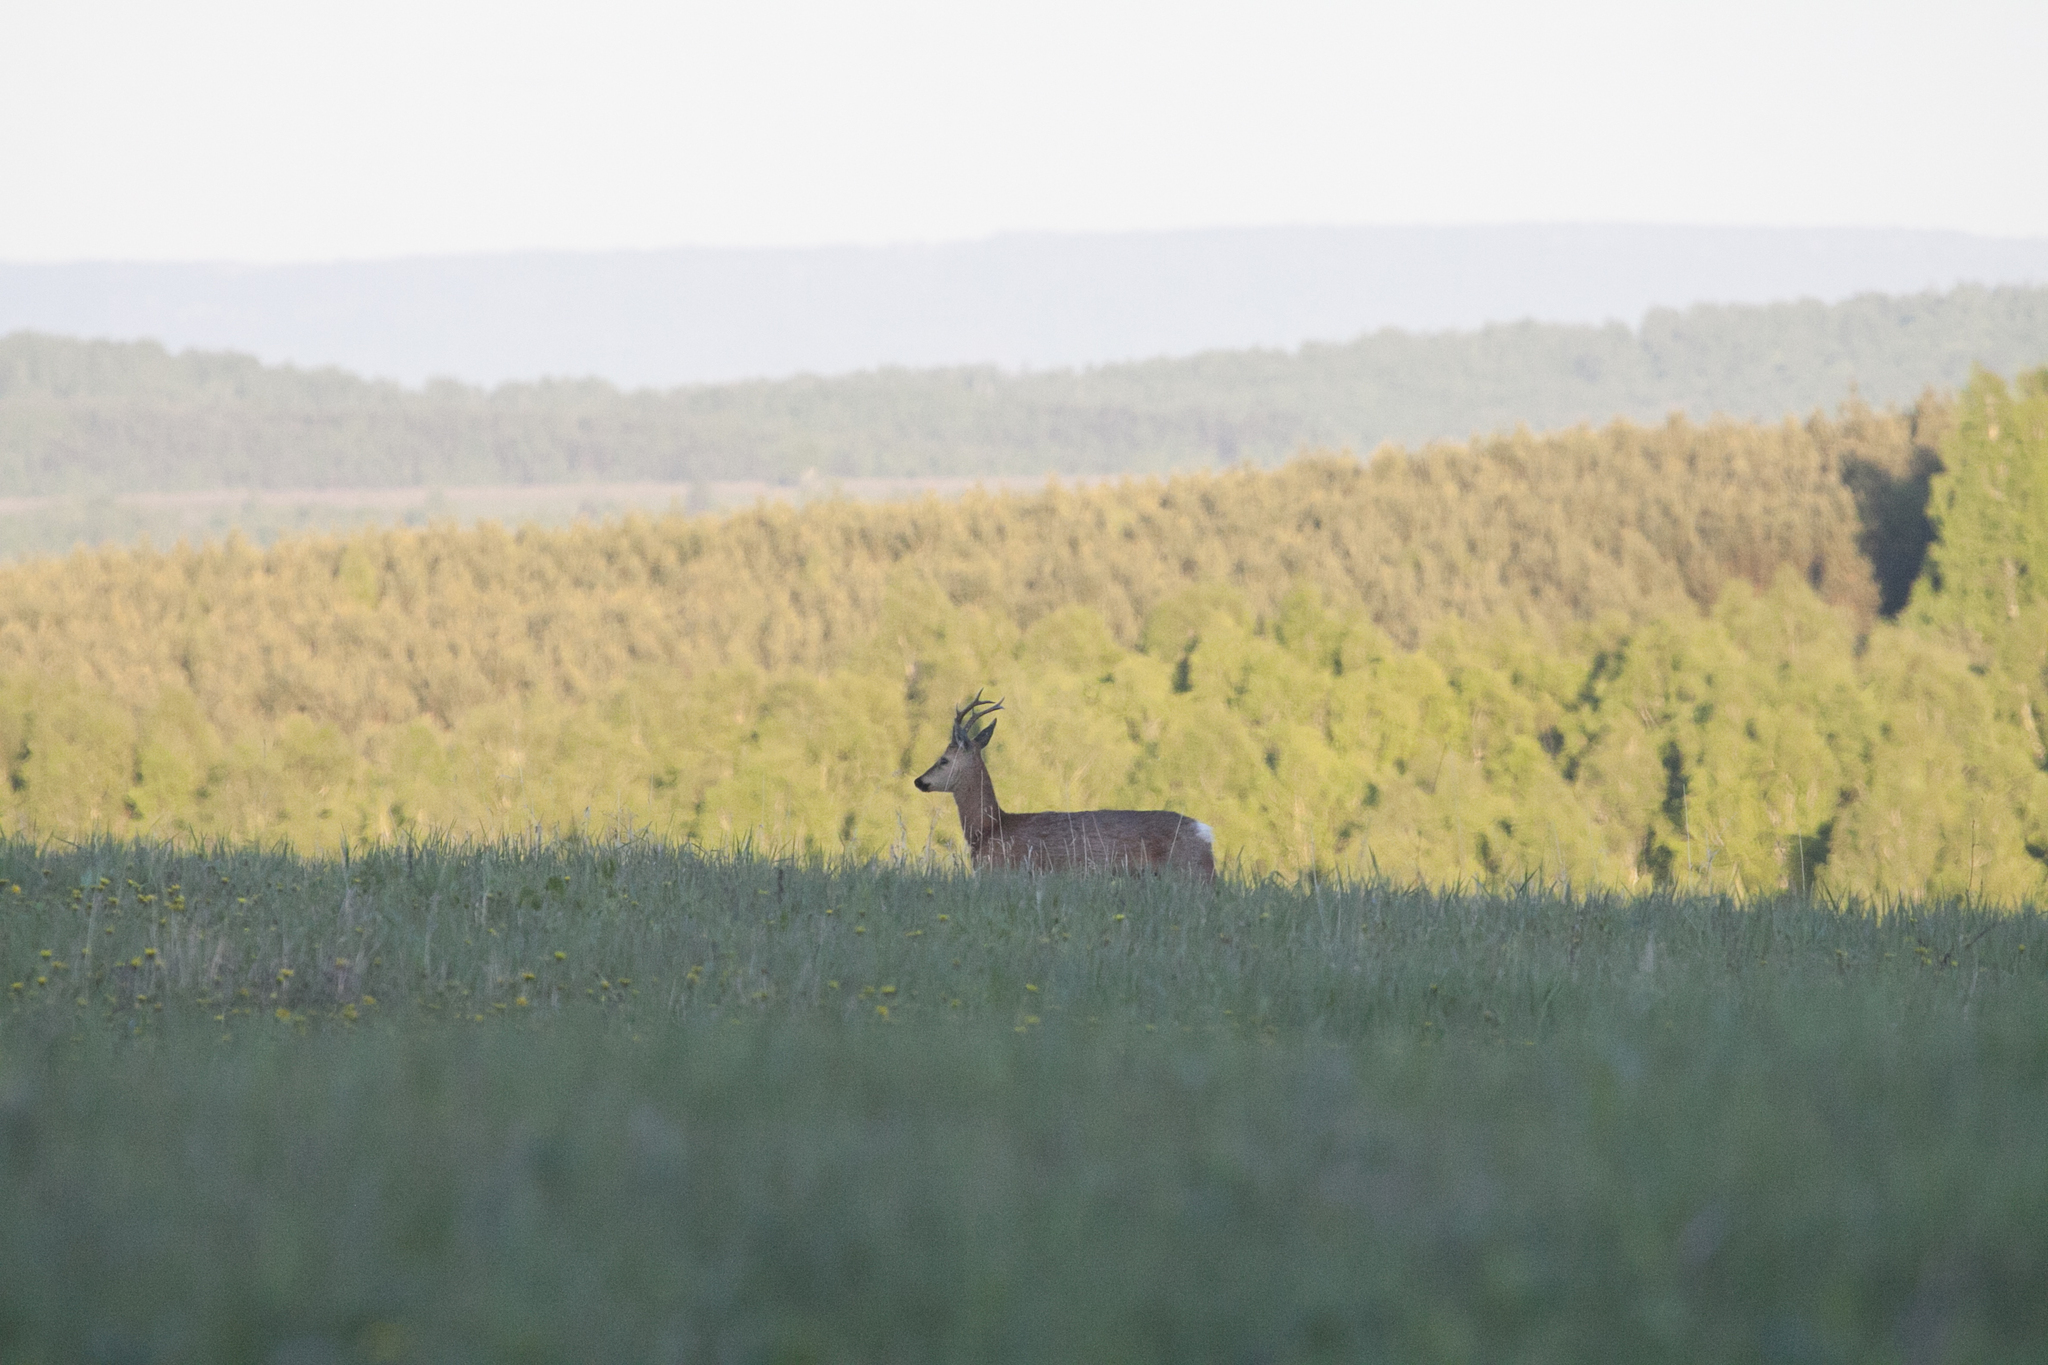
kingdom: Animalia
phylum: Chordata
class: Mammalia
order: Artiodactyla
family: Cervidae
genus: Capreolus
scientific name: Capreolus pygargus
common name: Siberian roe
